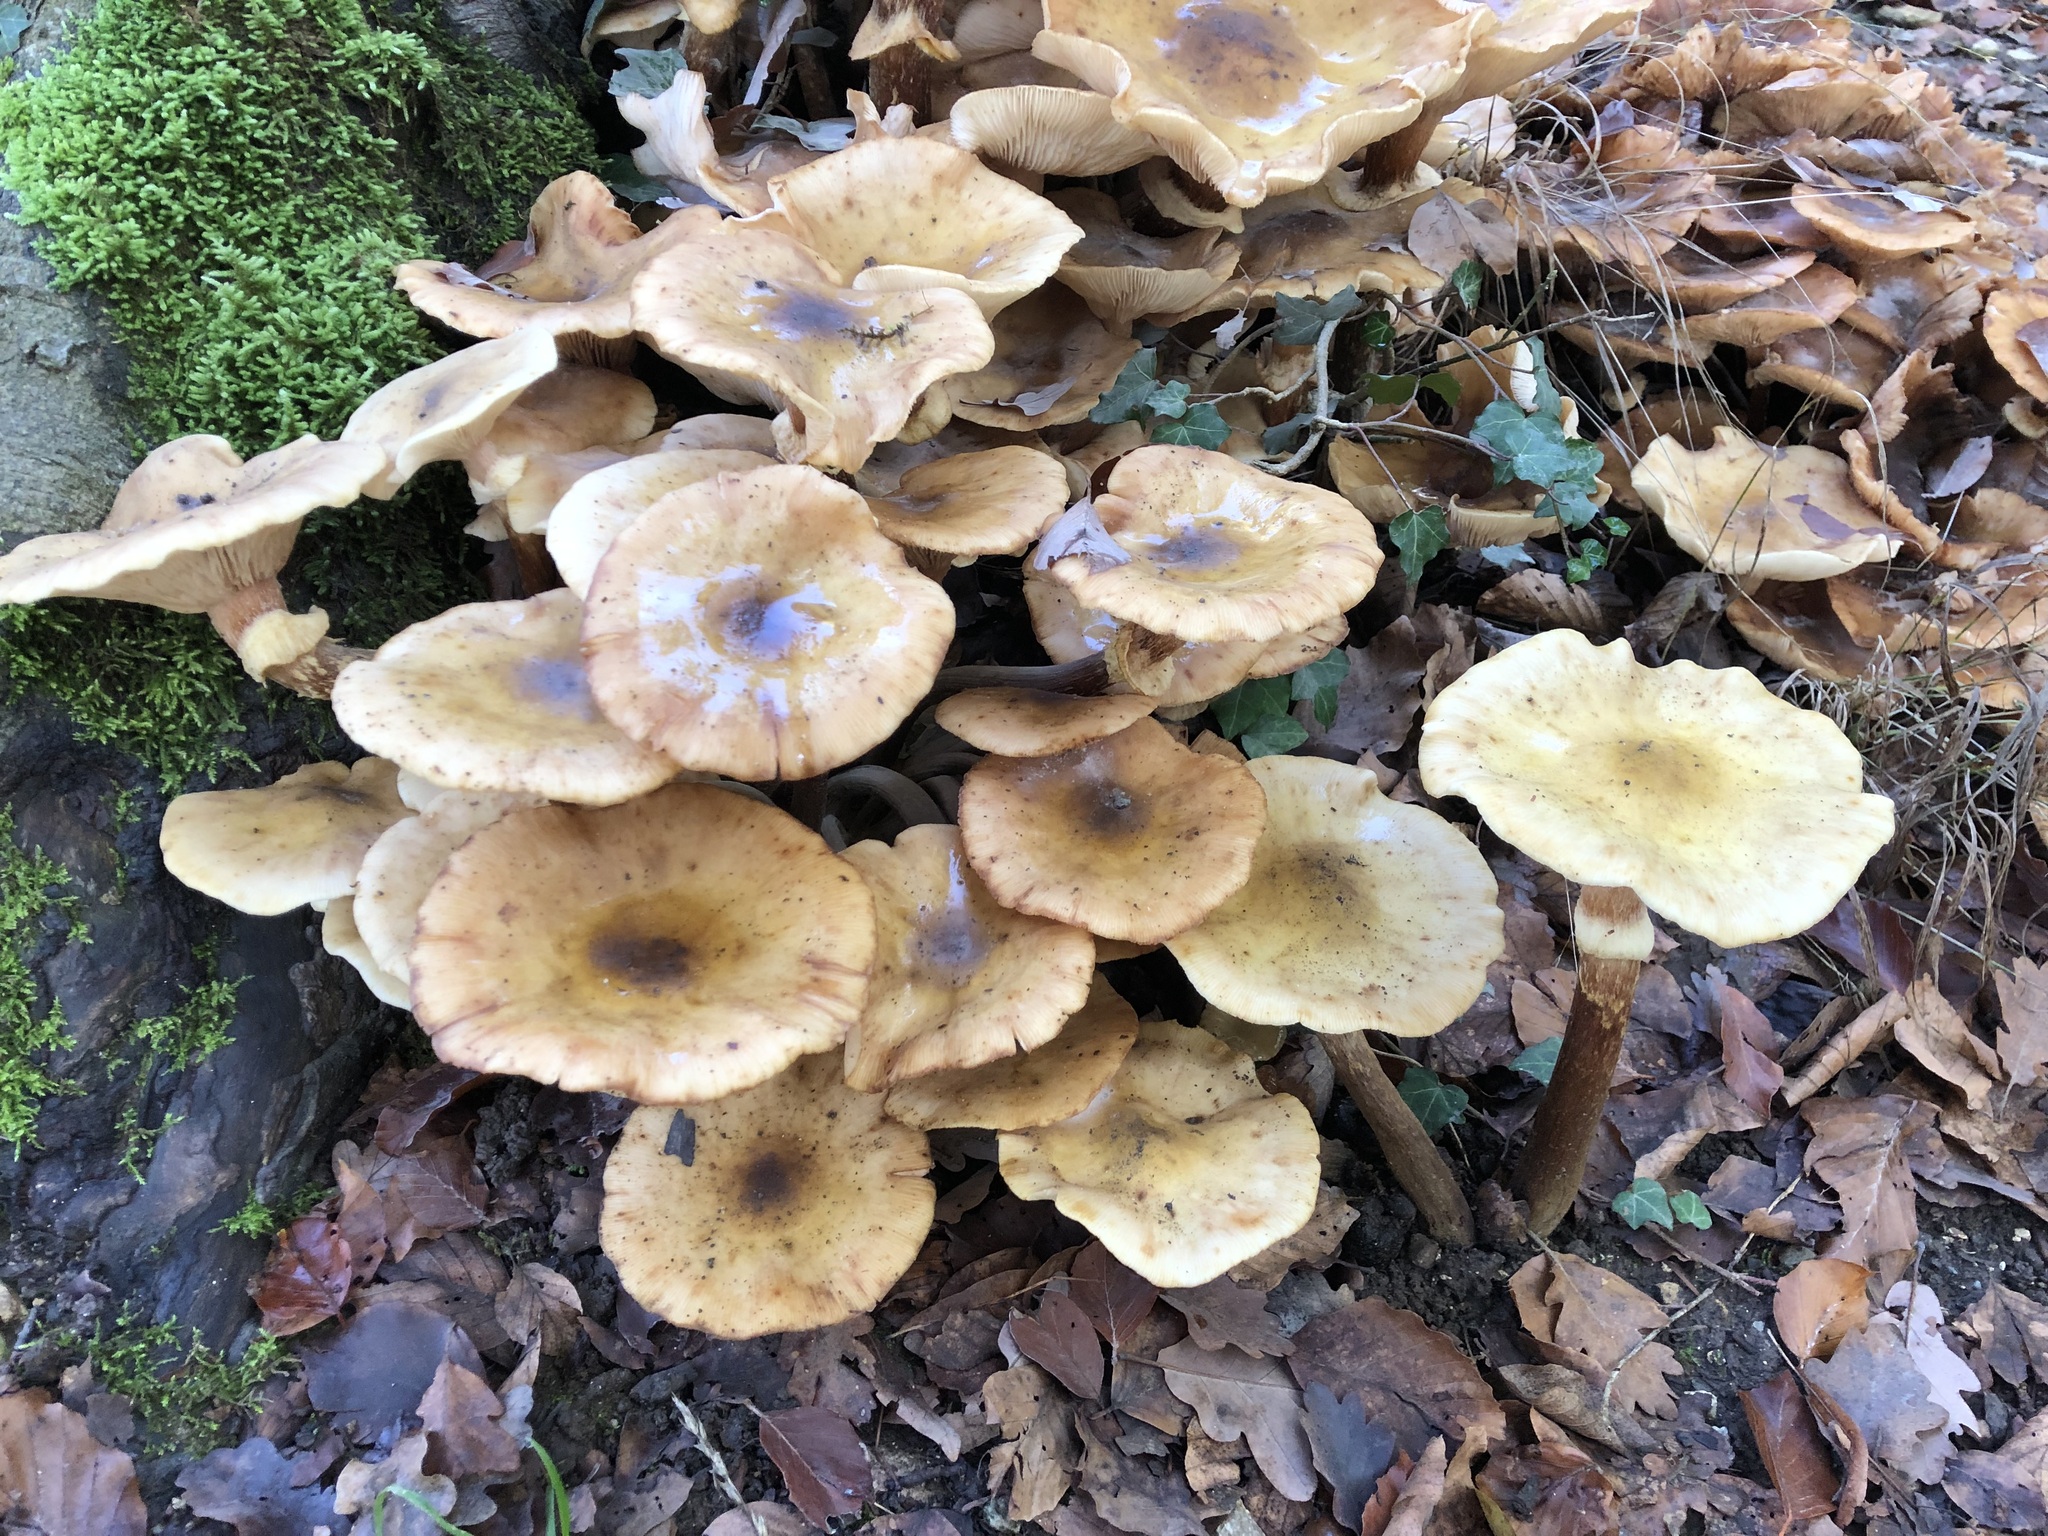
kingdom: Fungi
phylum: Basidiomycota
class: Agaricomycetes
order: Agaricales
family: Physalacriaceae
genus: Armillaria
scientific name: Armillaria mellea
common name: Honey fungus
